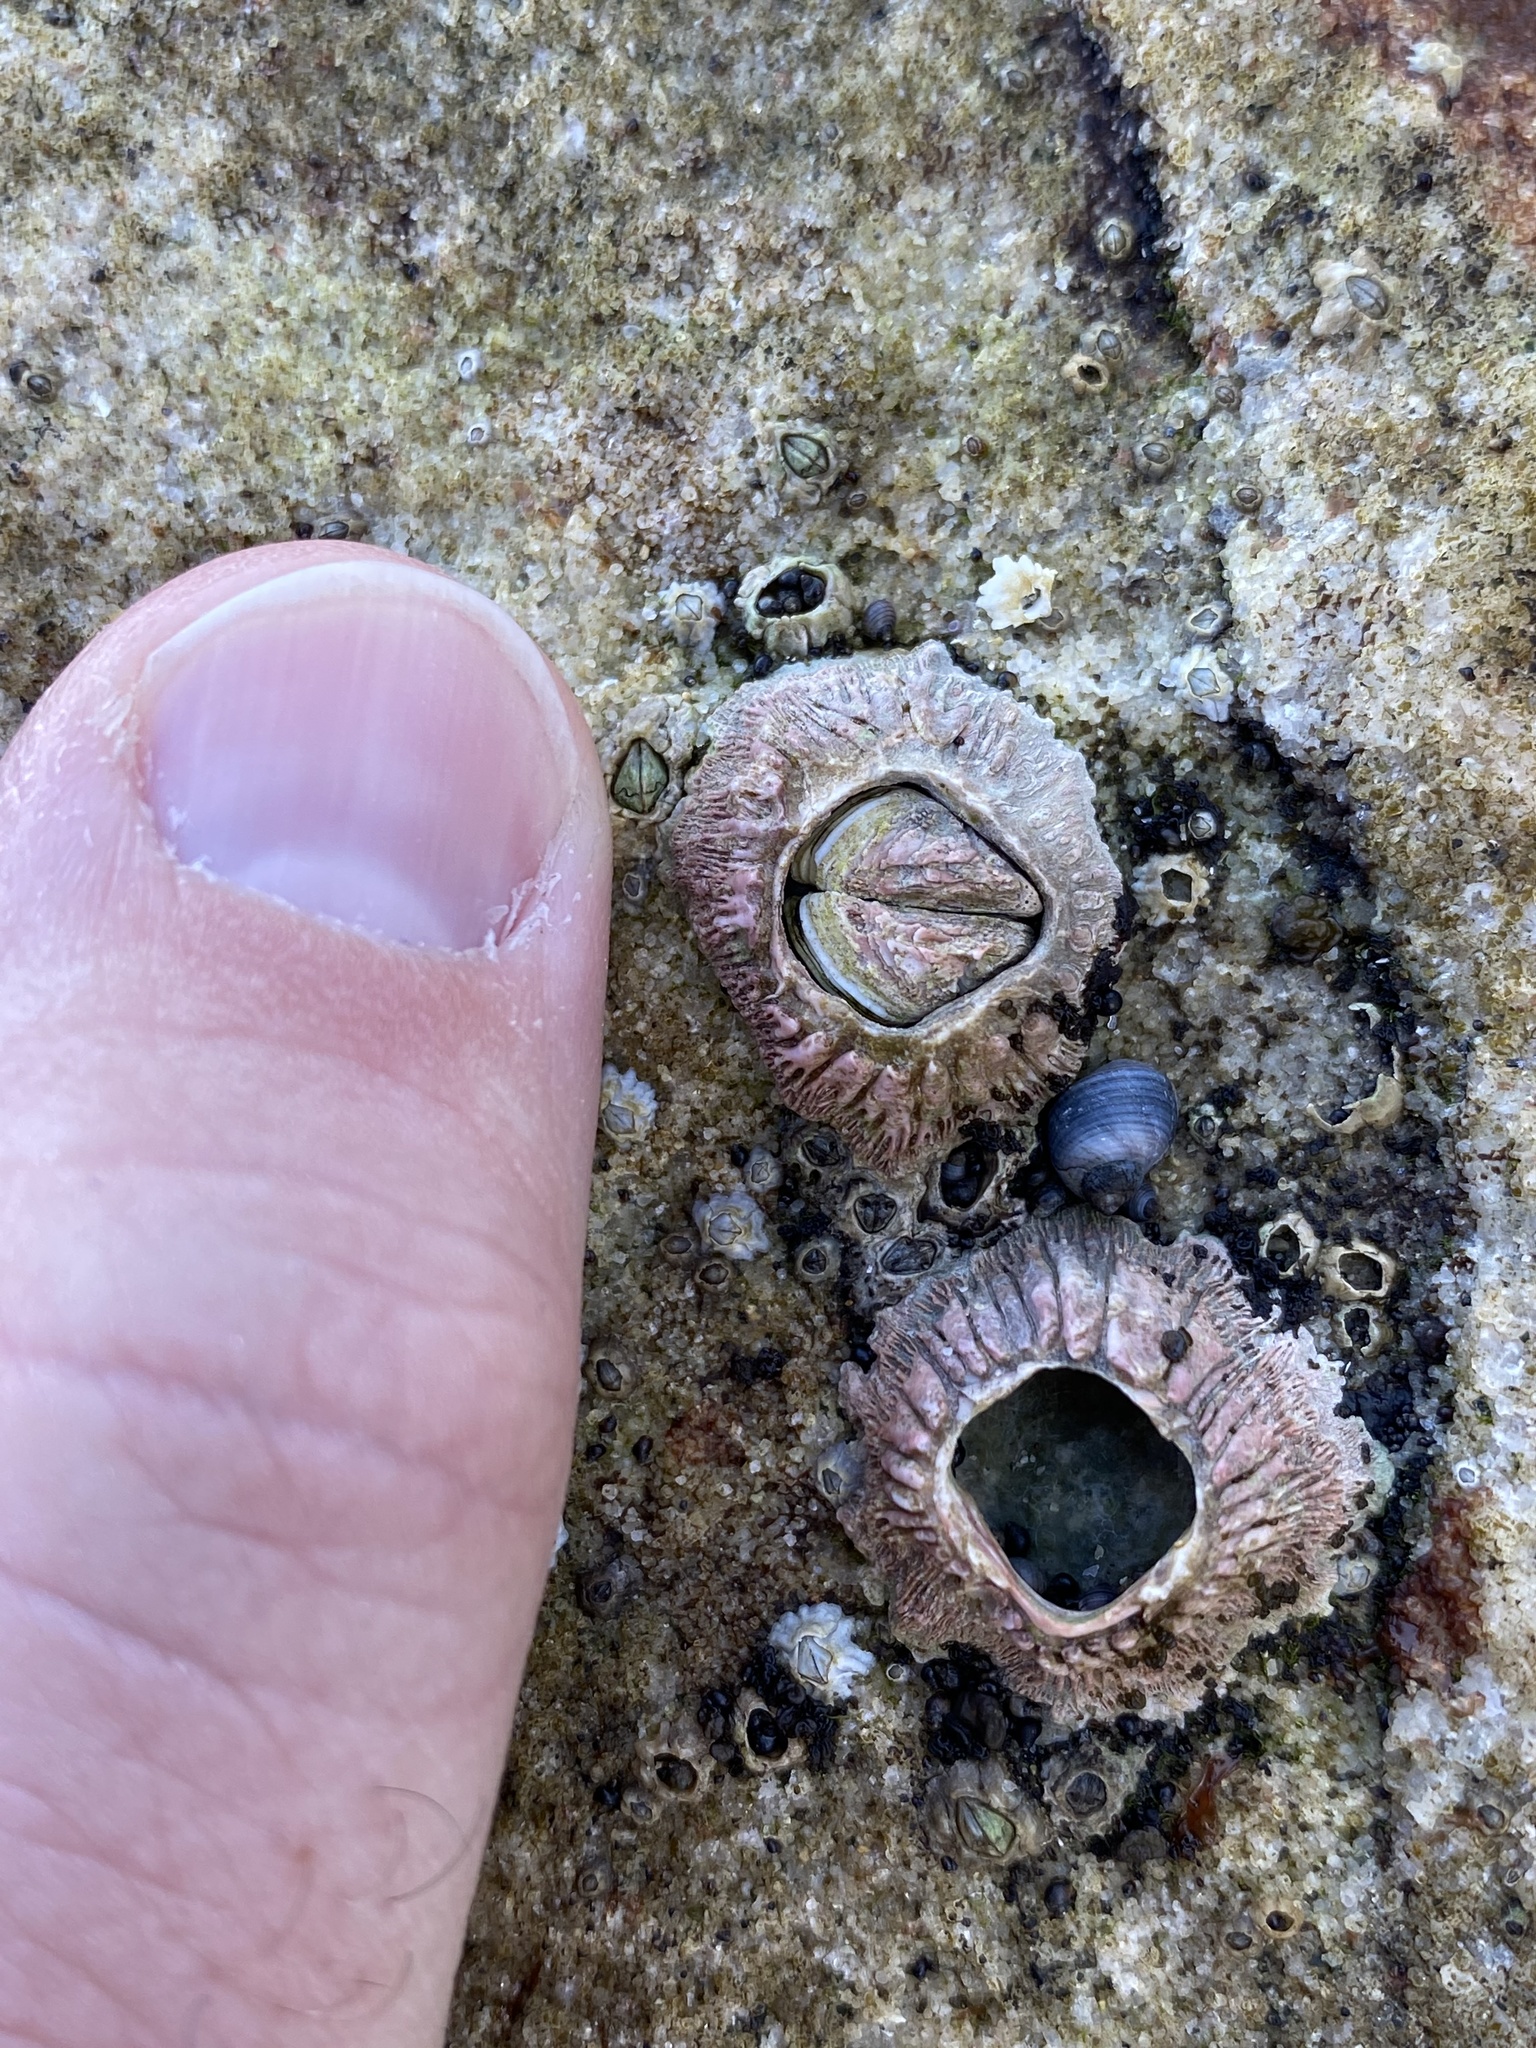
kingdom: Animalia
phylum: Arthropoda
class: Maxillopoda
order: Sessilia
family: Tetraclitidae
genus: Tesseropora
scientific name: Tesseropora rosea
